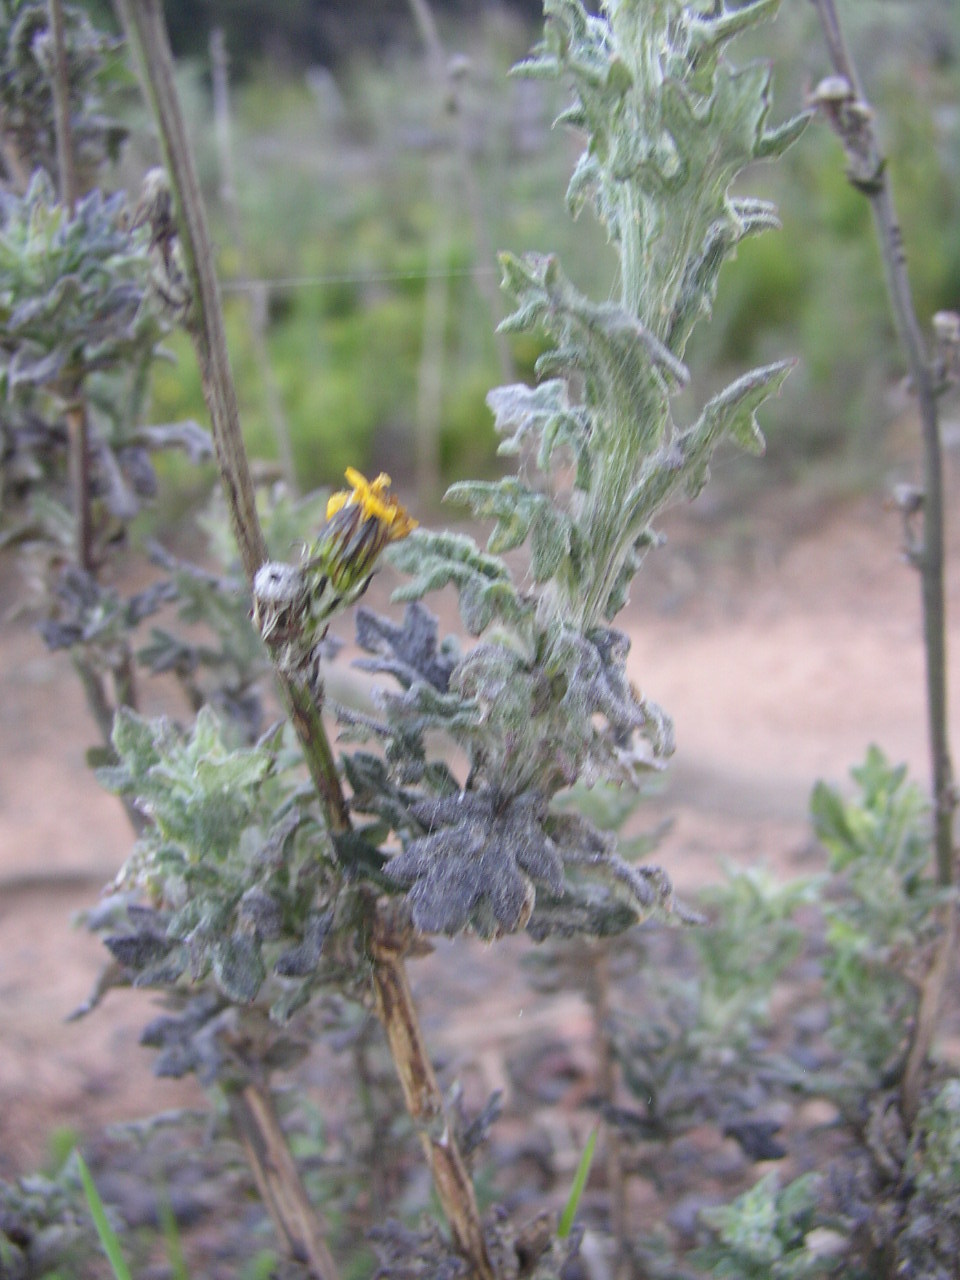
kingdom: Plantae
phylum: Tracheophyta
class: Magnoliopsida
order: Asterales
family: Asteraceae
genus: Senecio
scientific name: Senecio pubigerus
